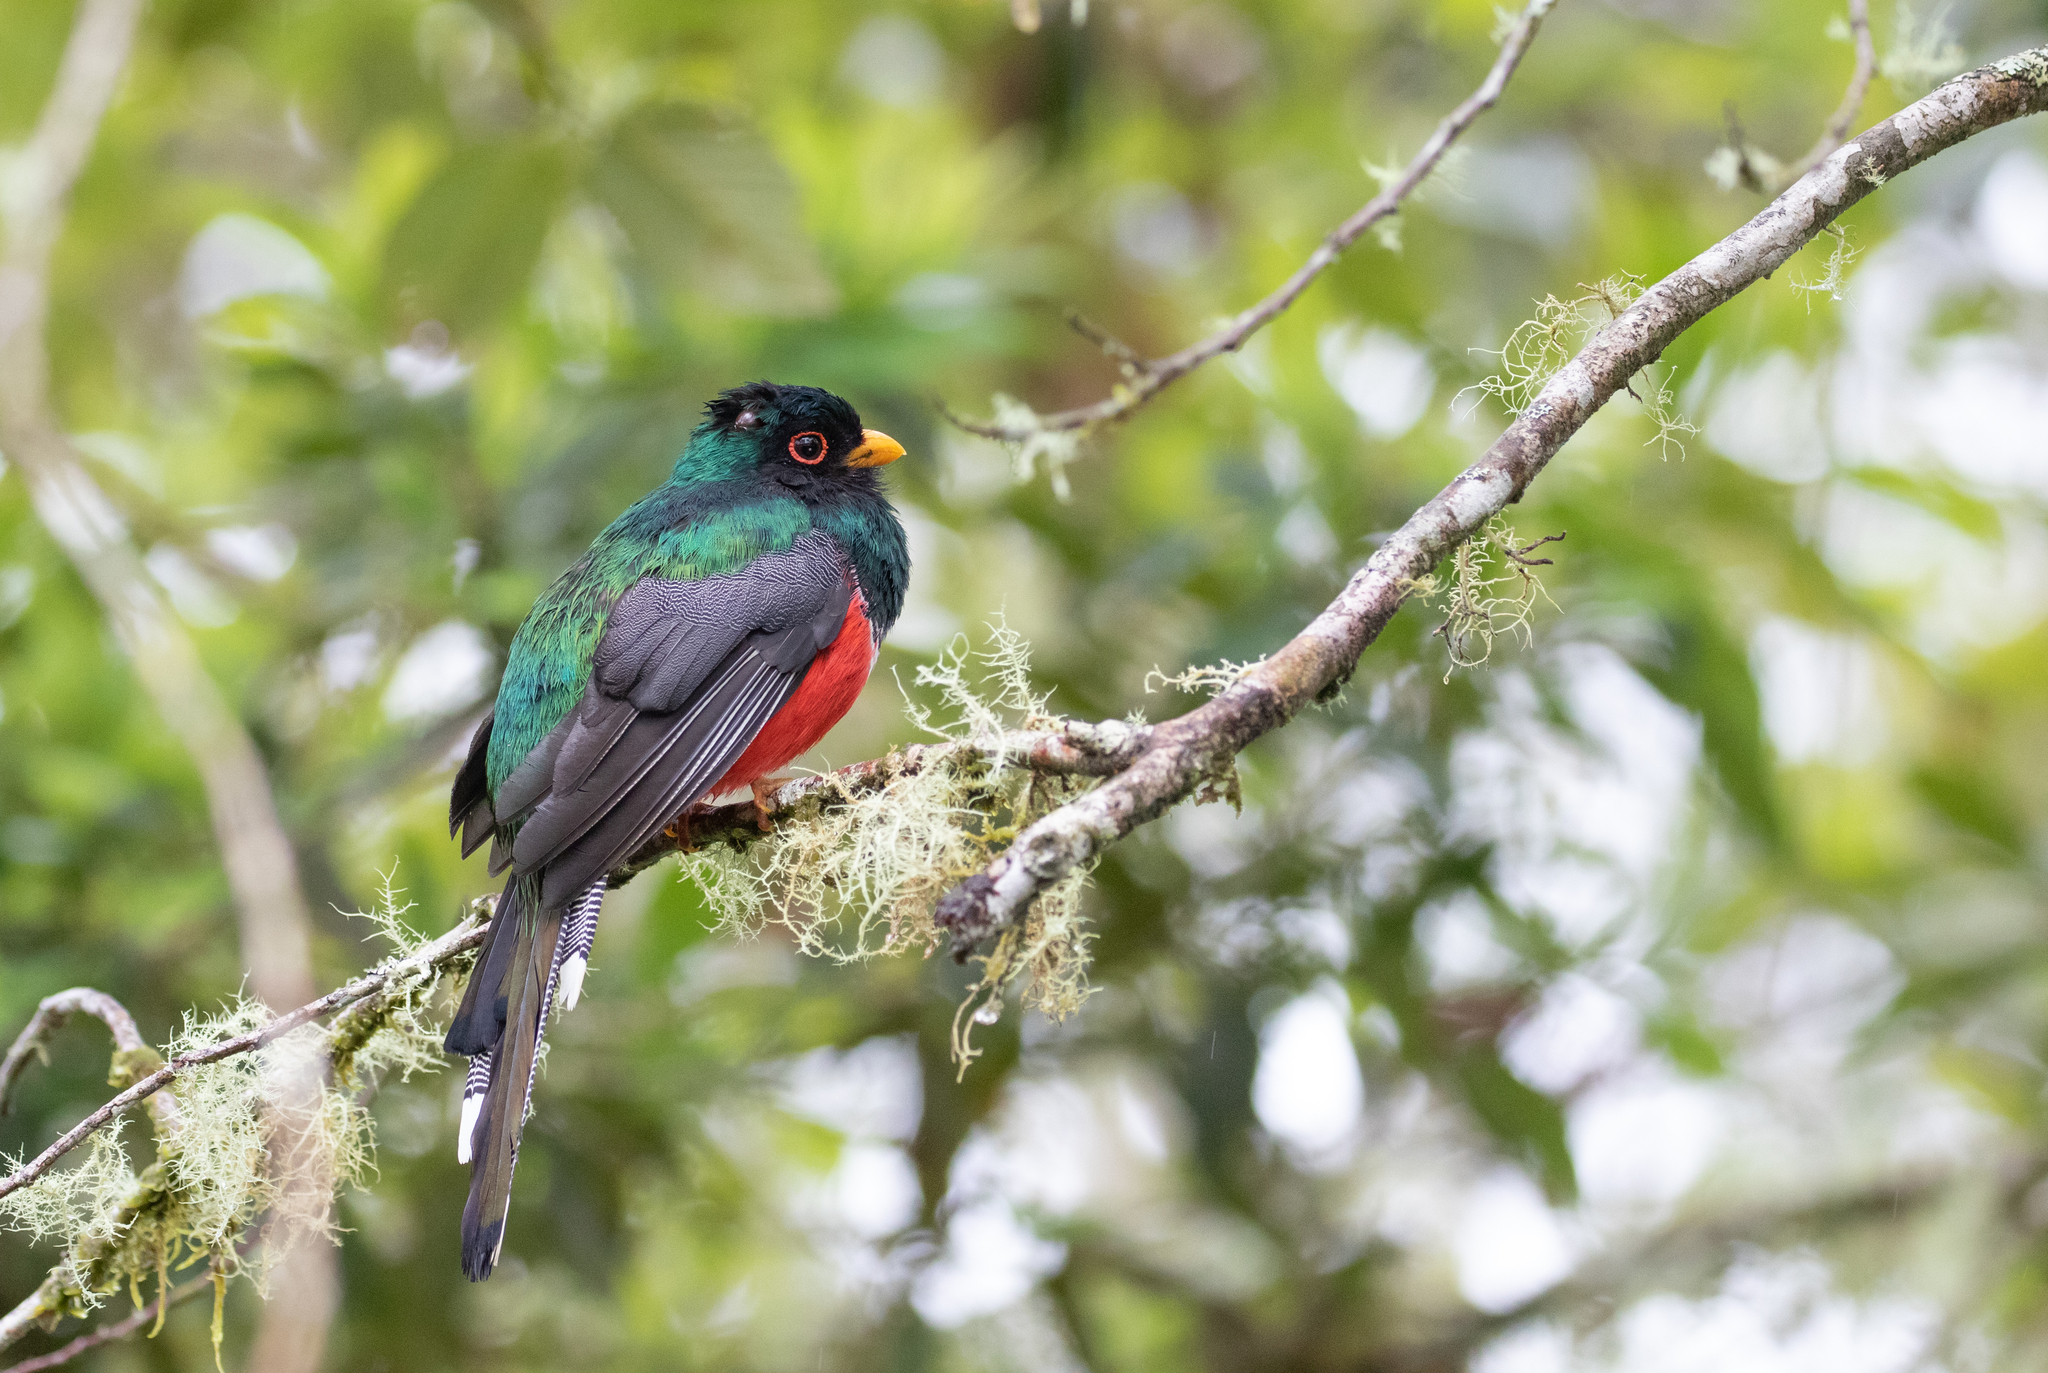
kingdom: Animalia
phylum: Chordata
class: Aves
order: Trogoniformes
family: Trogonidae
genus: Trogon
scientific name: Trogon personatus
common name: Masked trogon
